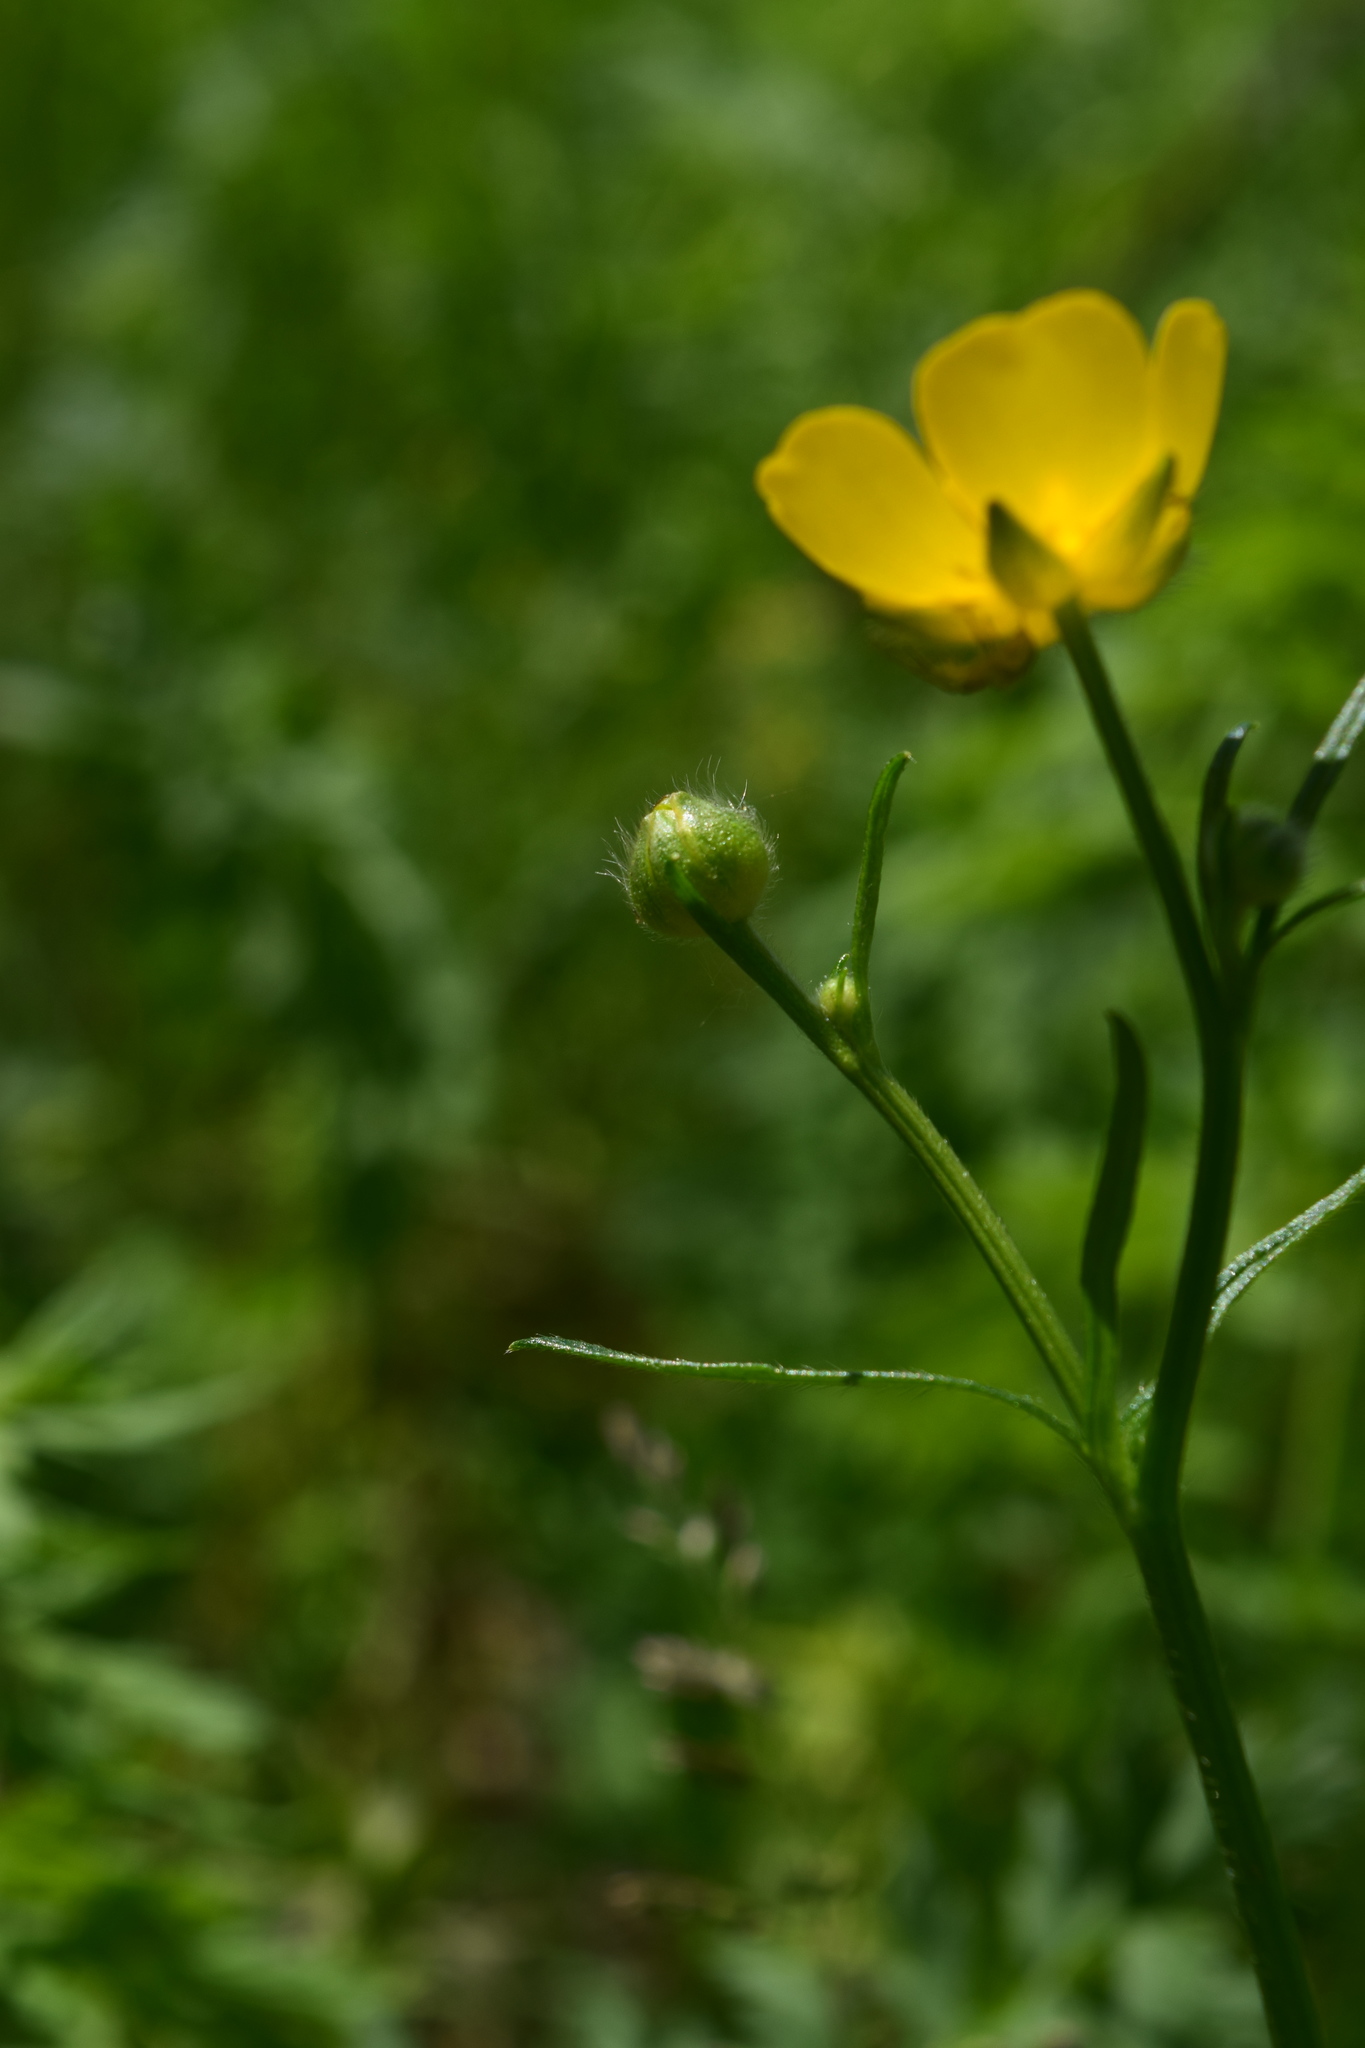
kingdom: Plantae
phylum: Tracheophyta
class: Magnoliopsida
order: Ranunculales
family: Ranunculaceae
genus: Ranunculus
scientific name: Ranunculus polyanthemos
